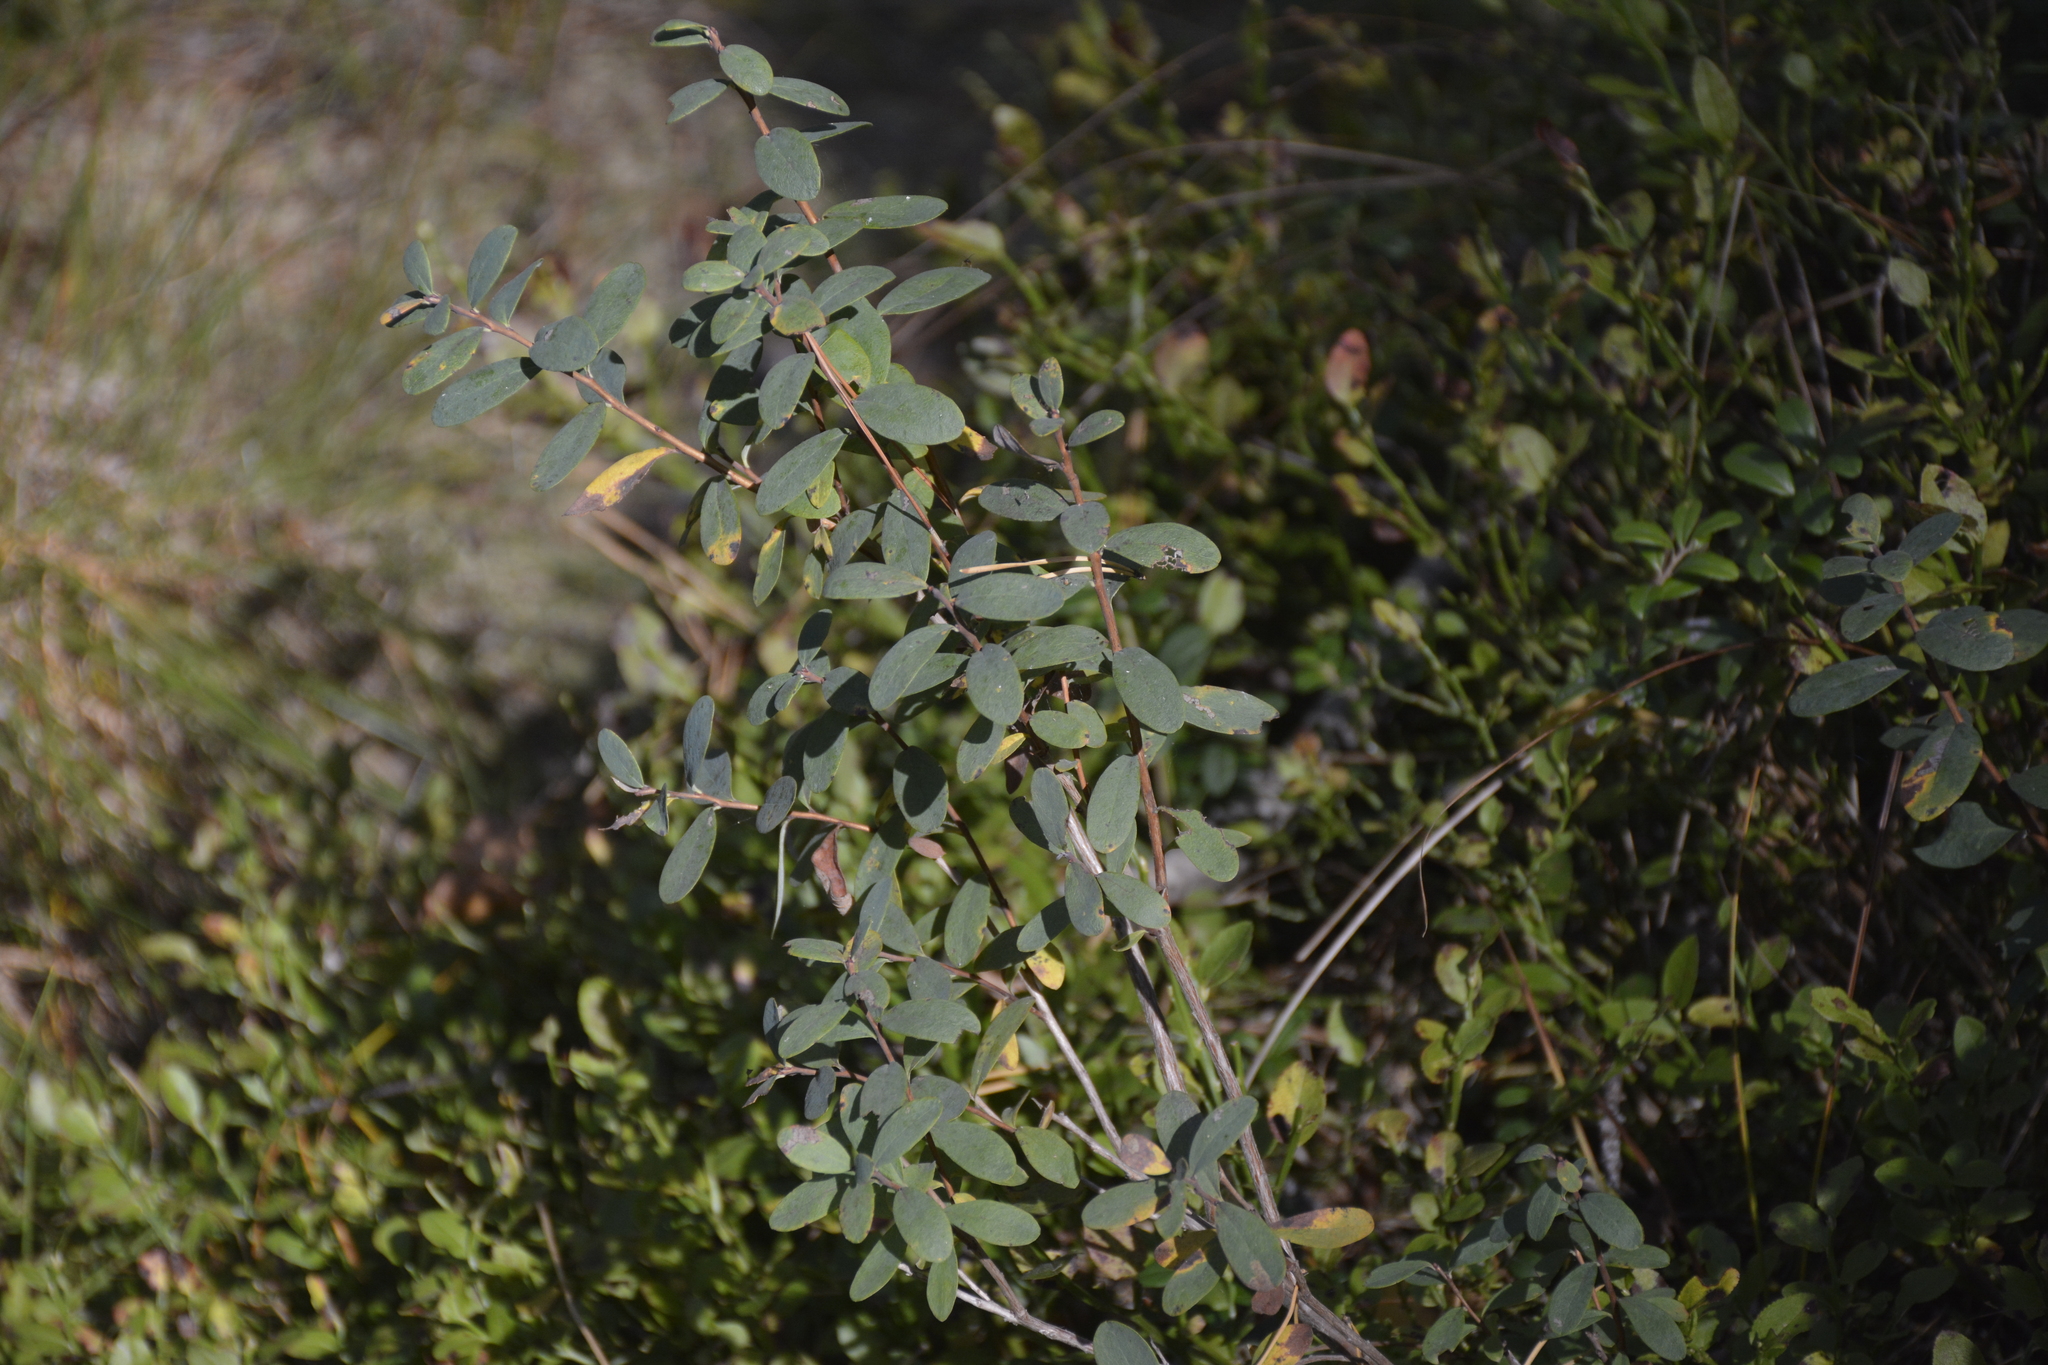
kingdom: Plantae
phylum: Tracheophyta
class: Magnoliopsida
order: Ericales
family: Ericaceae
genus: Vaccinium
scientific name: Vaccinium uliginosum
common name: Bog bilberry
